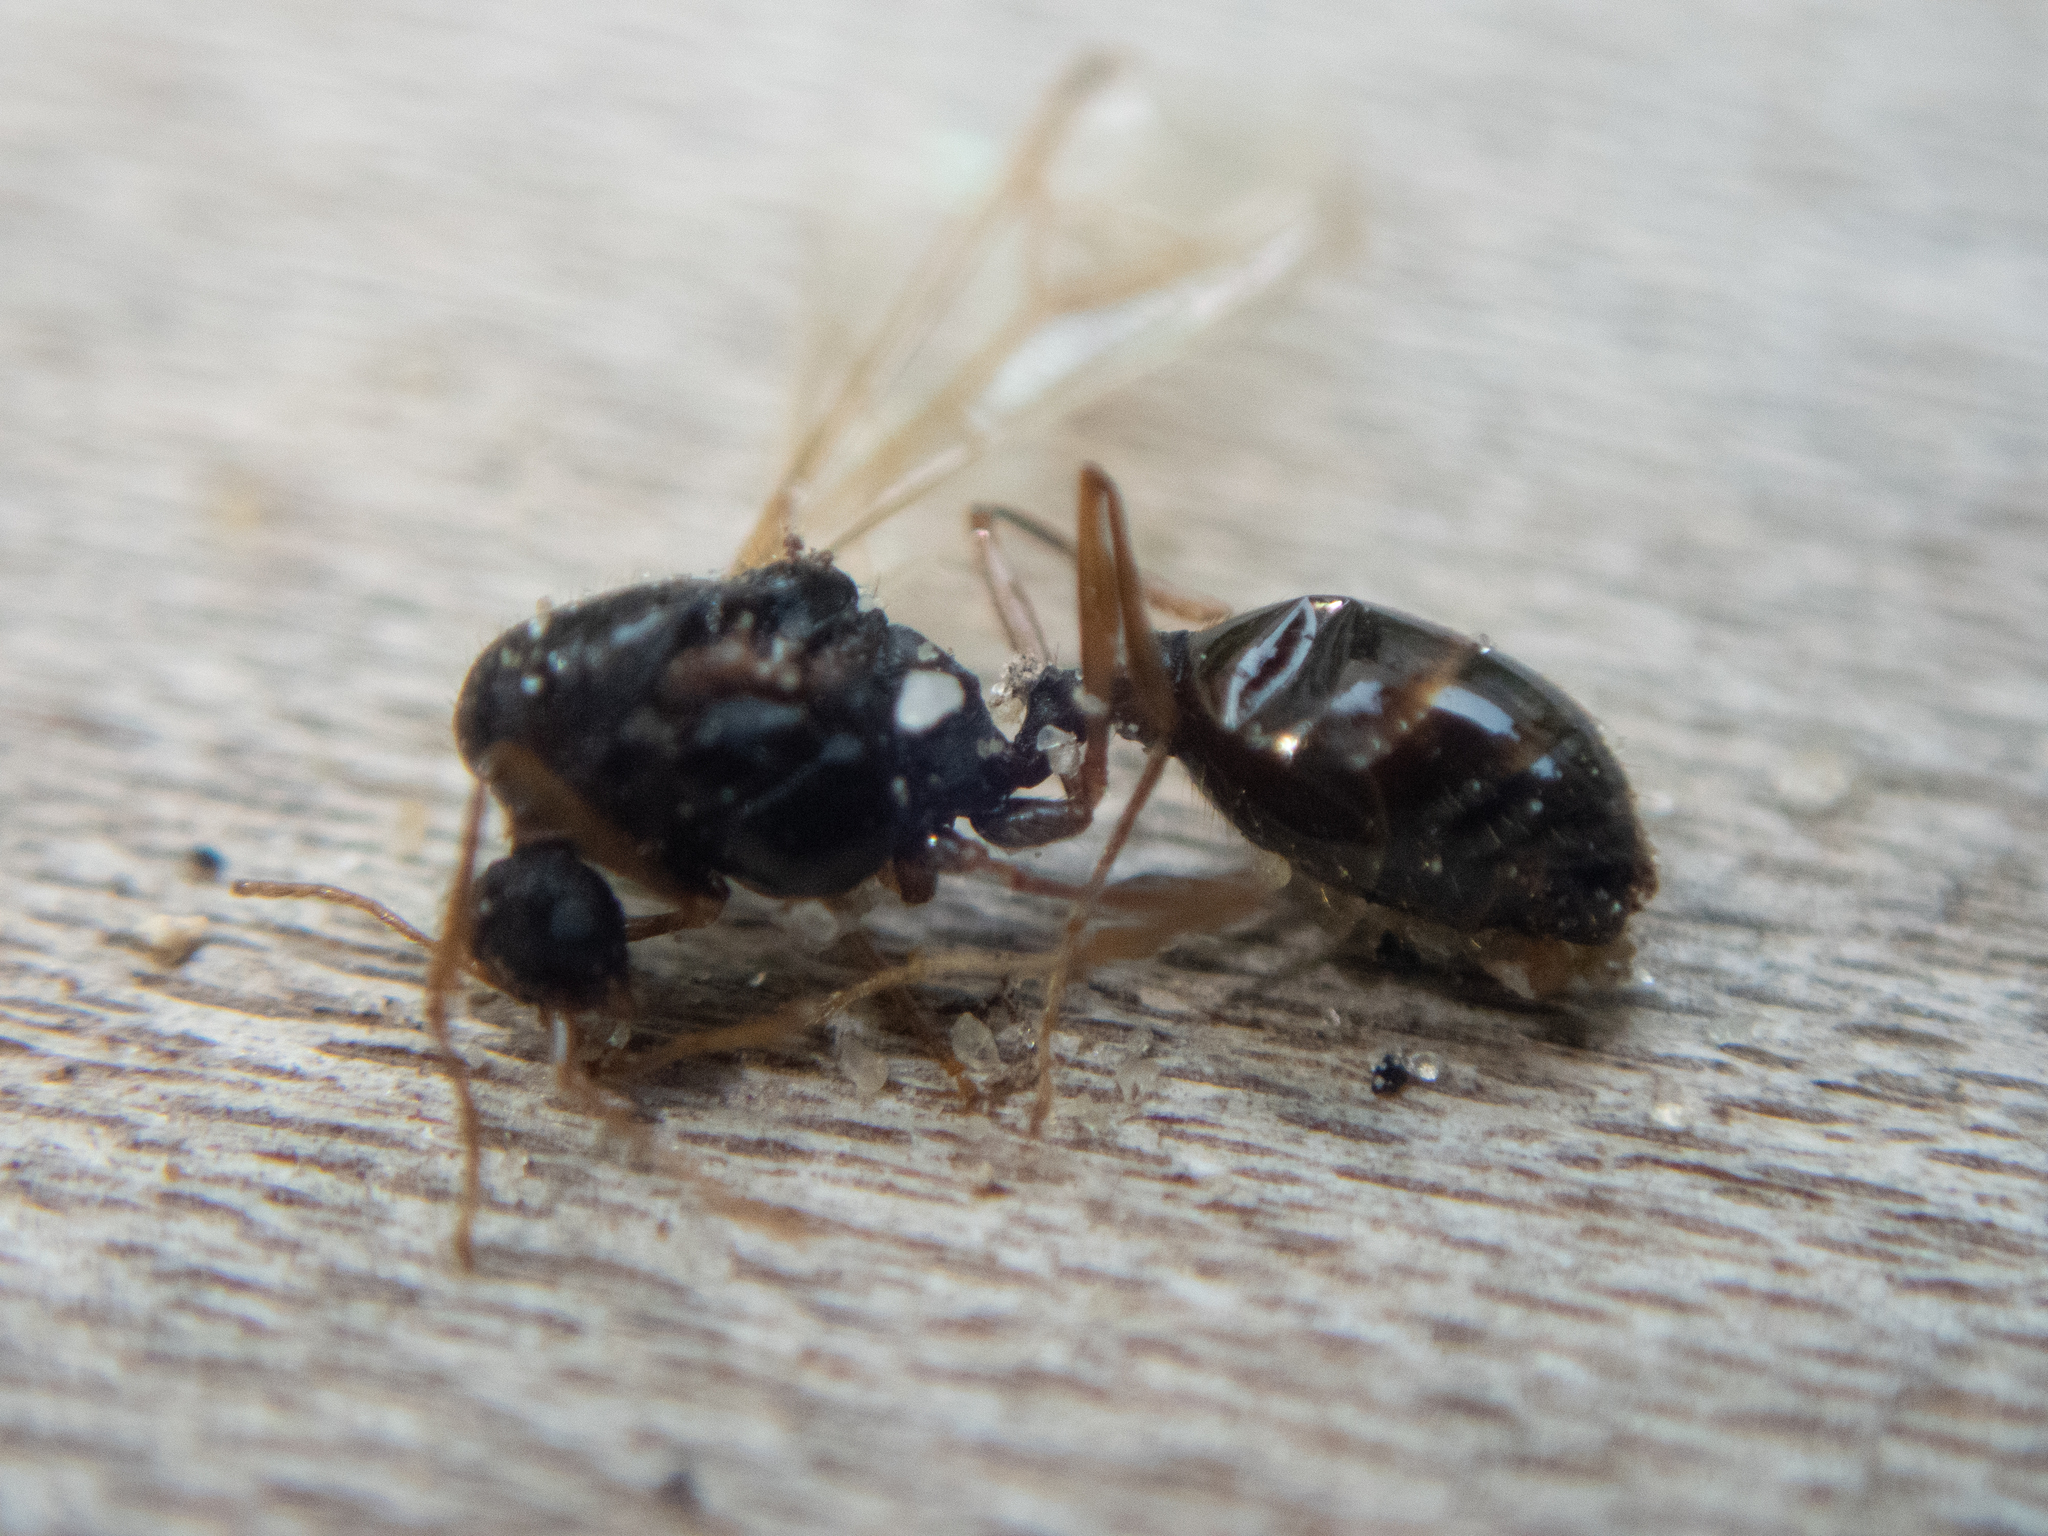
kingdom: Animalia
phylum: Arthropoda
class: Insecta
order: Hymenoptera
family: Formicidae
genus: Tetramorium
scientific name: Tetramorium immigrans
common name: Pavement ant
